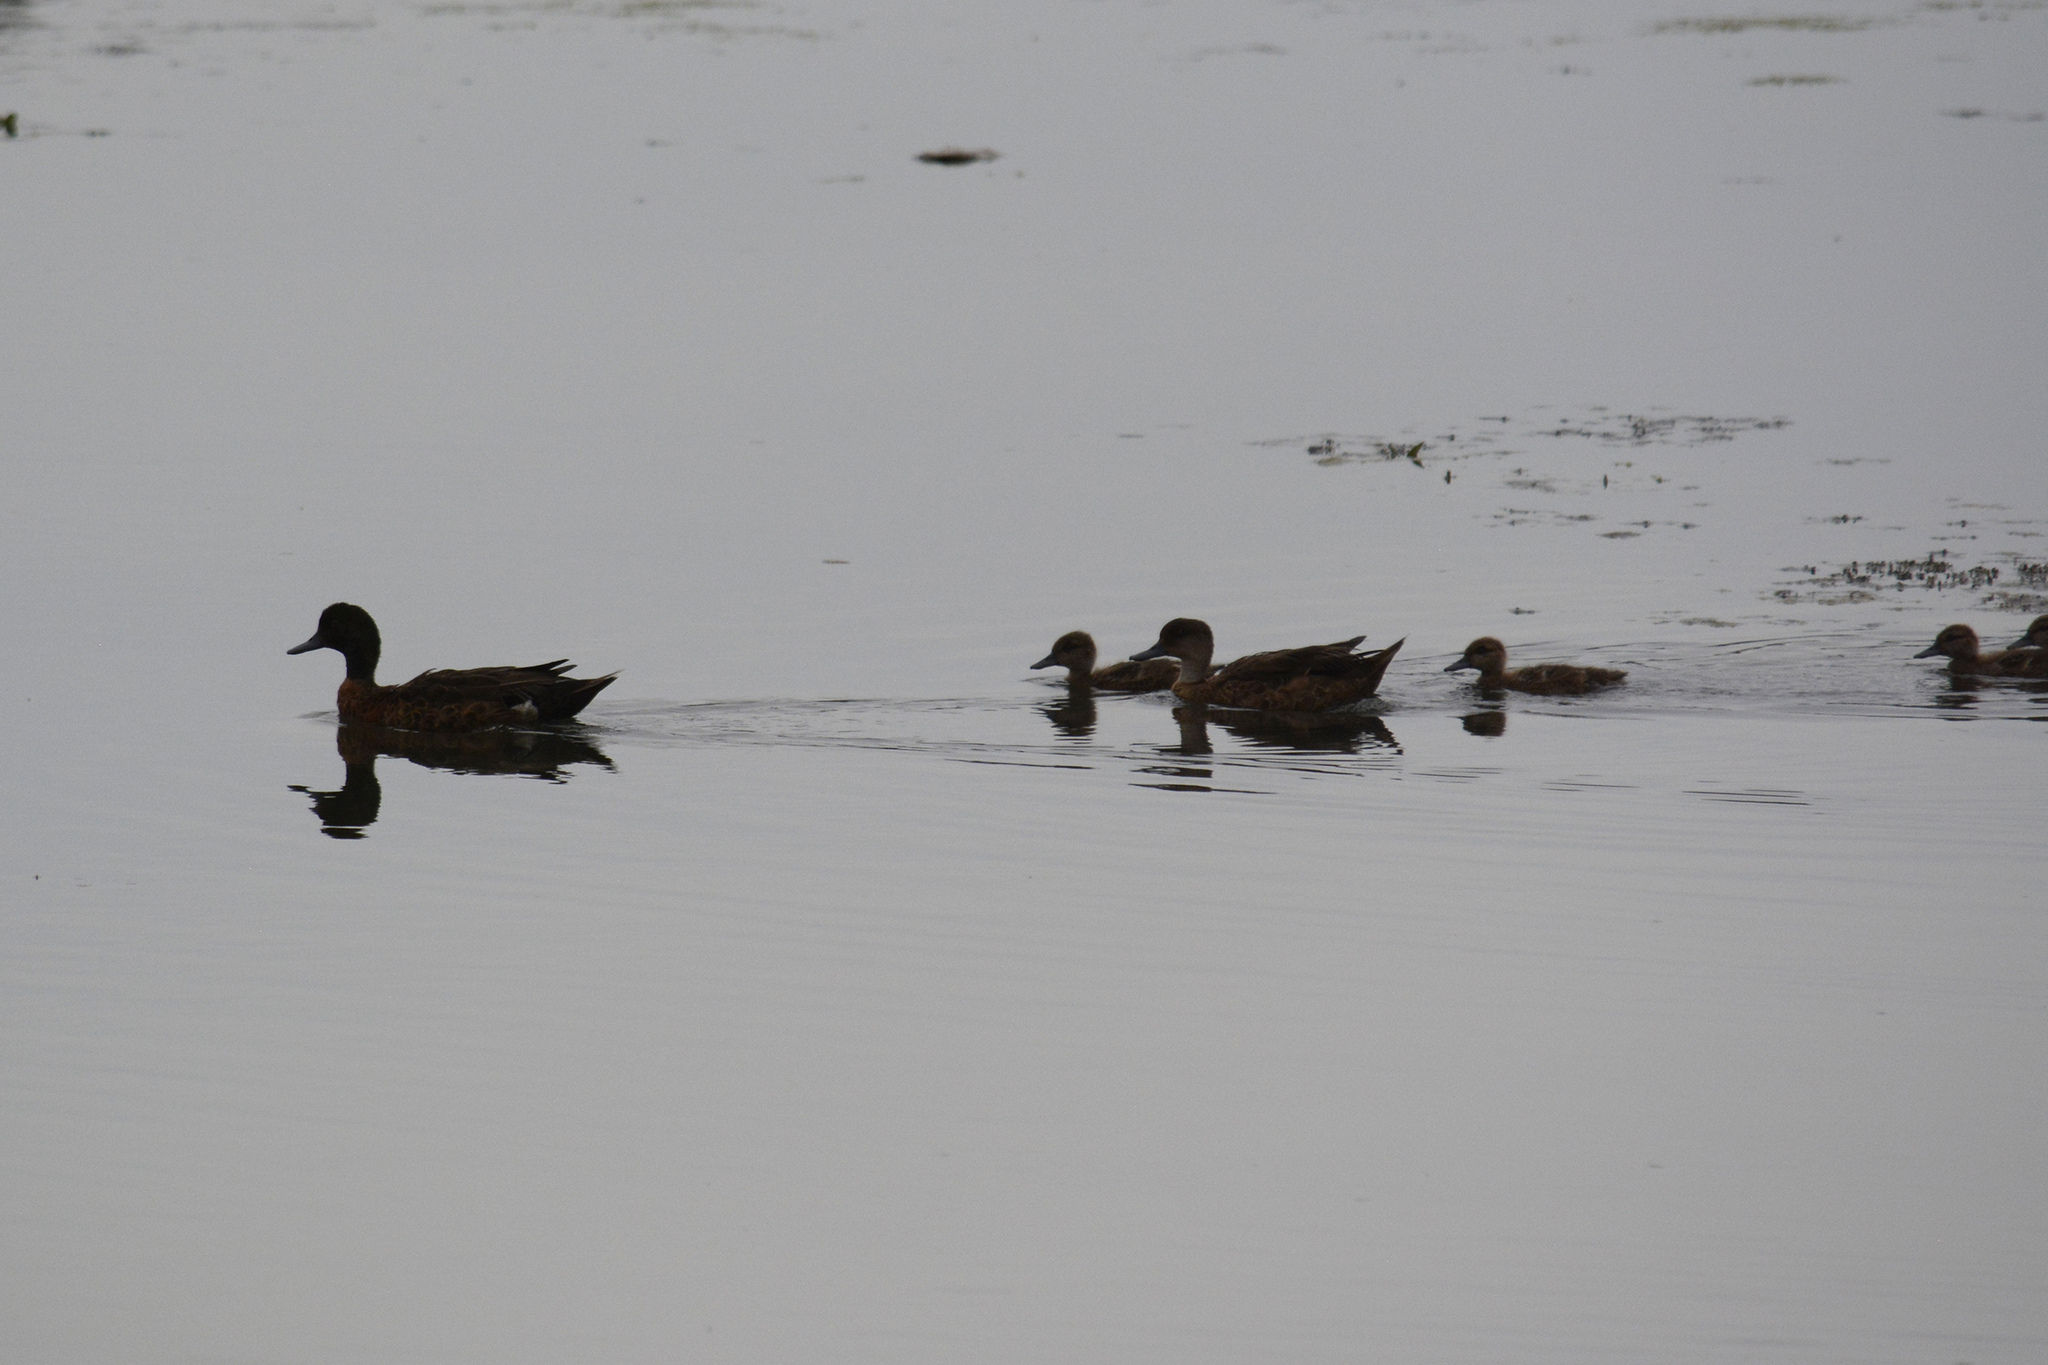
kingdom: Animalia
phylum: Chordata
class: Aves
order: Anseriformes
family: Anatidae
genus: Anas
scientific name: Anas castanea
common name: Chestnut teal
